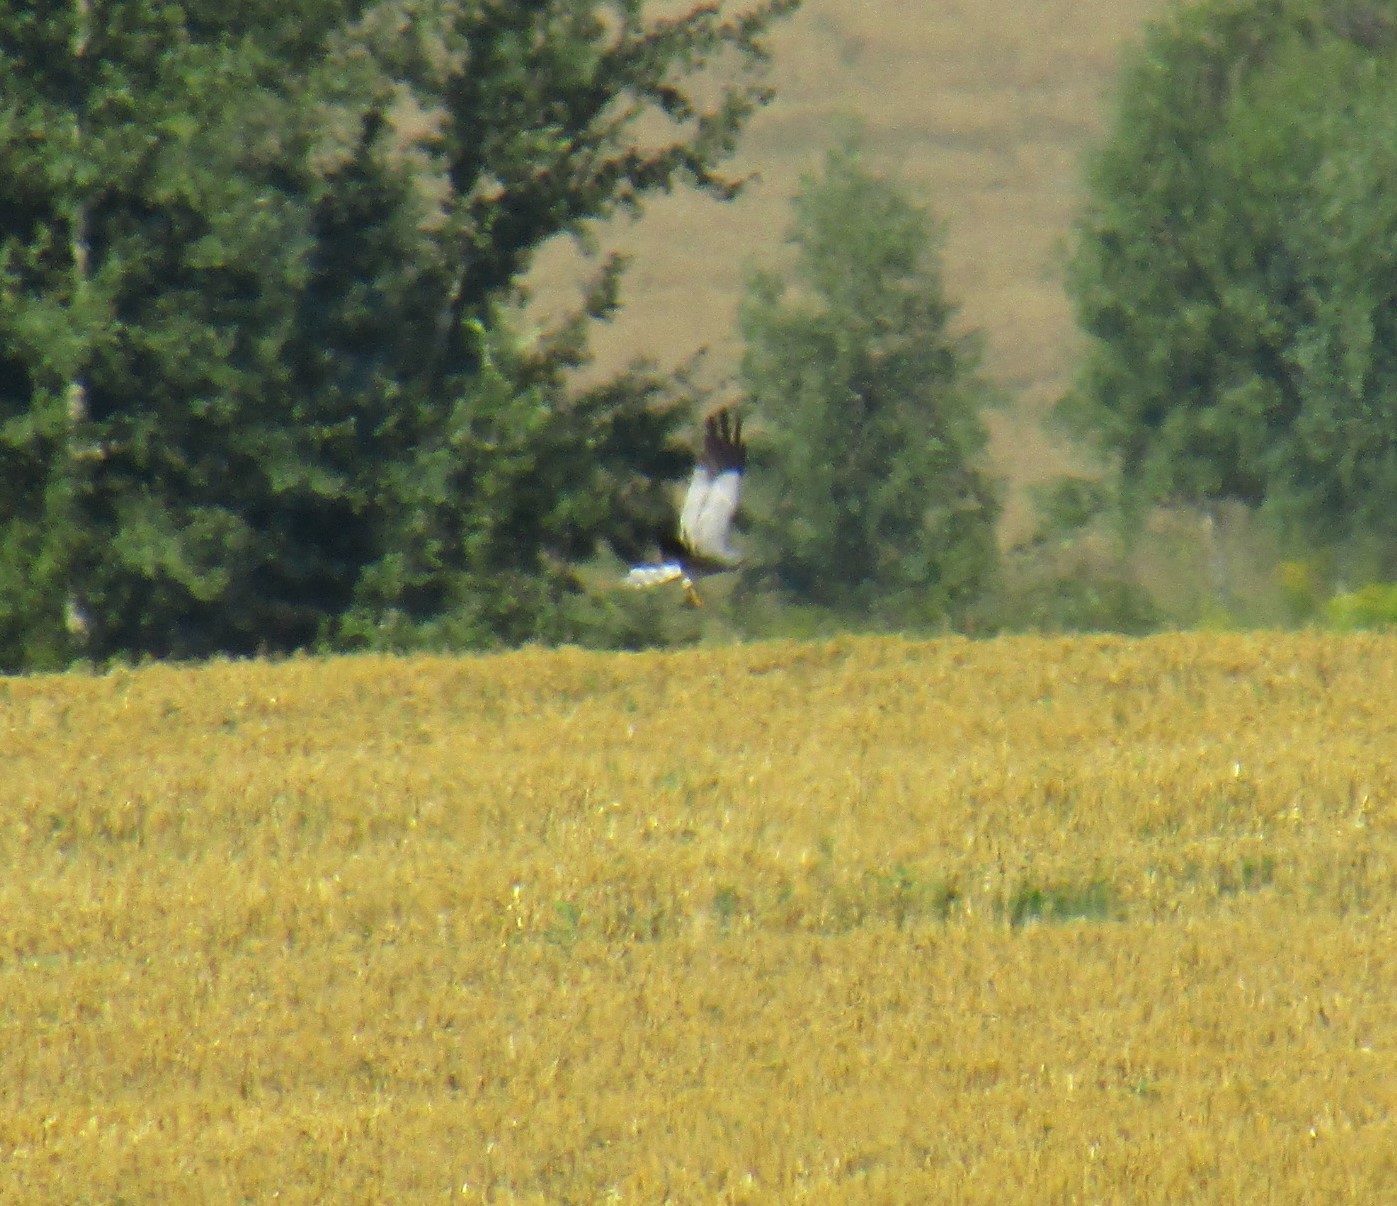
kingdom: Animalia
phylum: Chordata
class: Aves
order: Accipitriformes
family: Accipitridae
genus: Circus
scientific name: Circus pygargus
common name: Montagu's harrier
